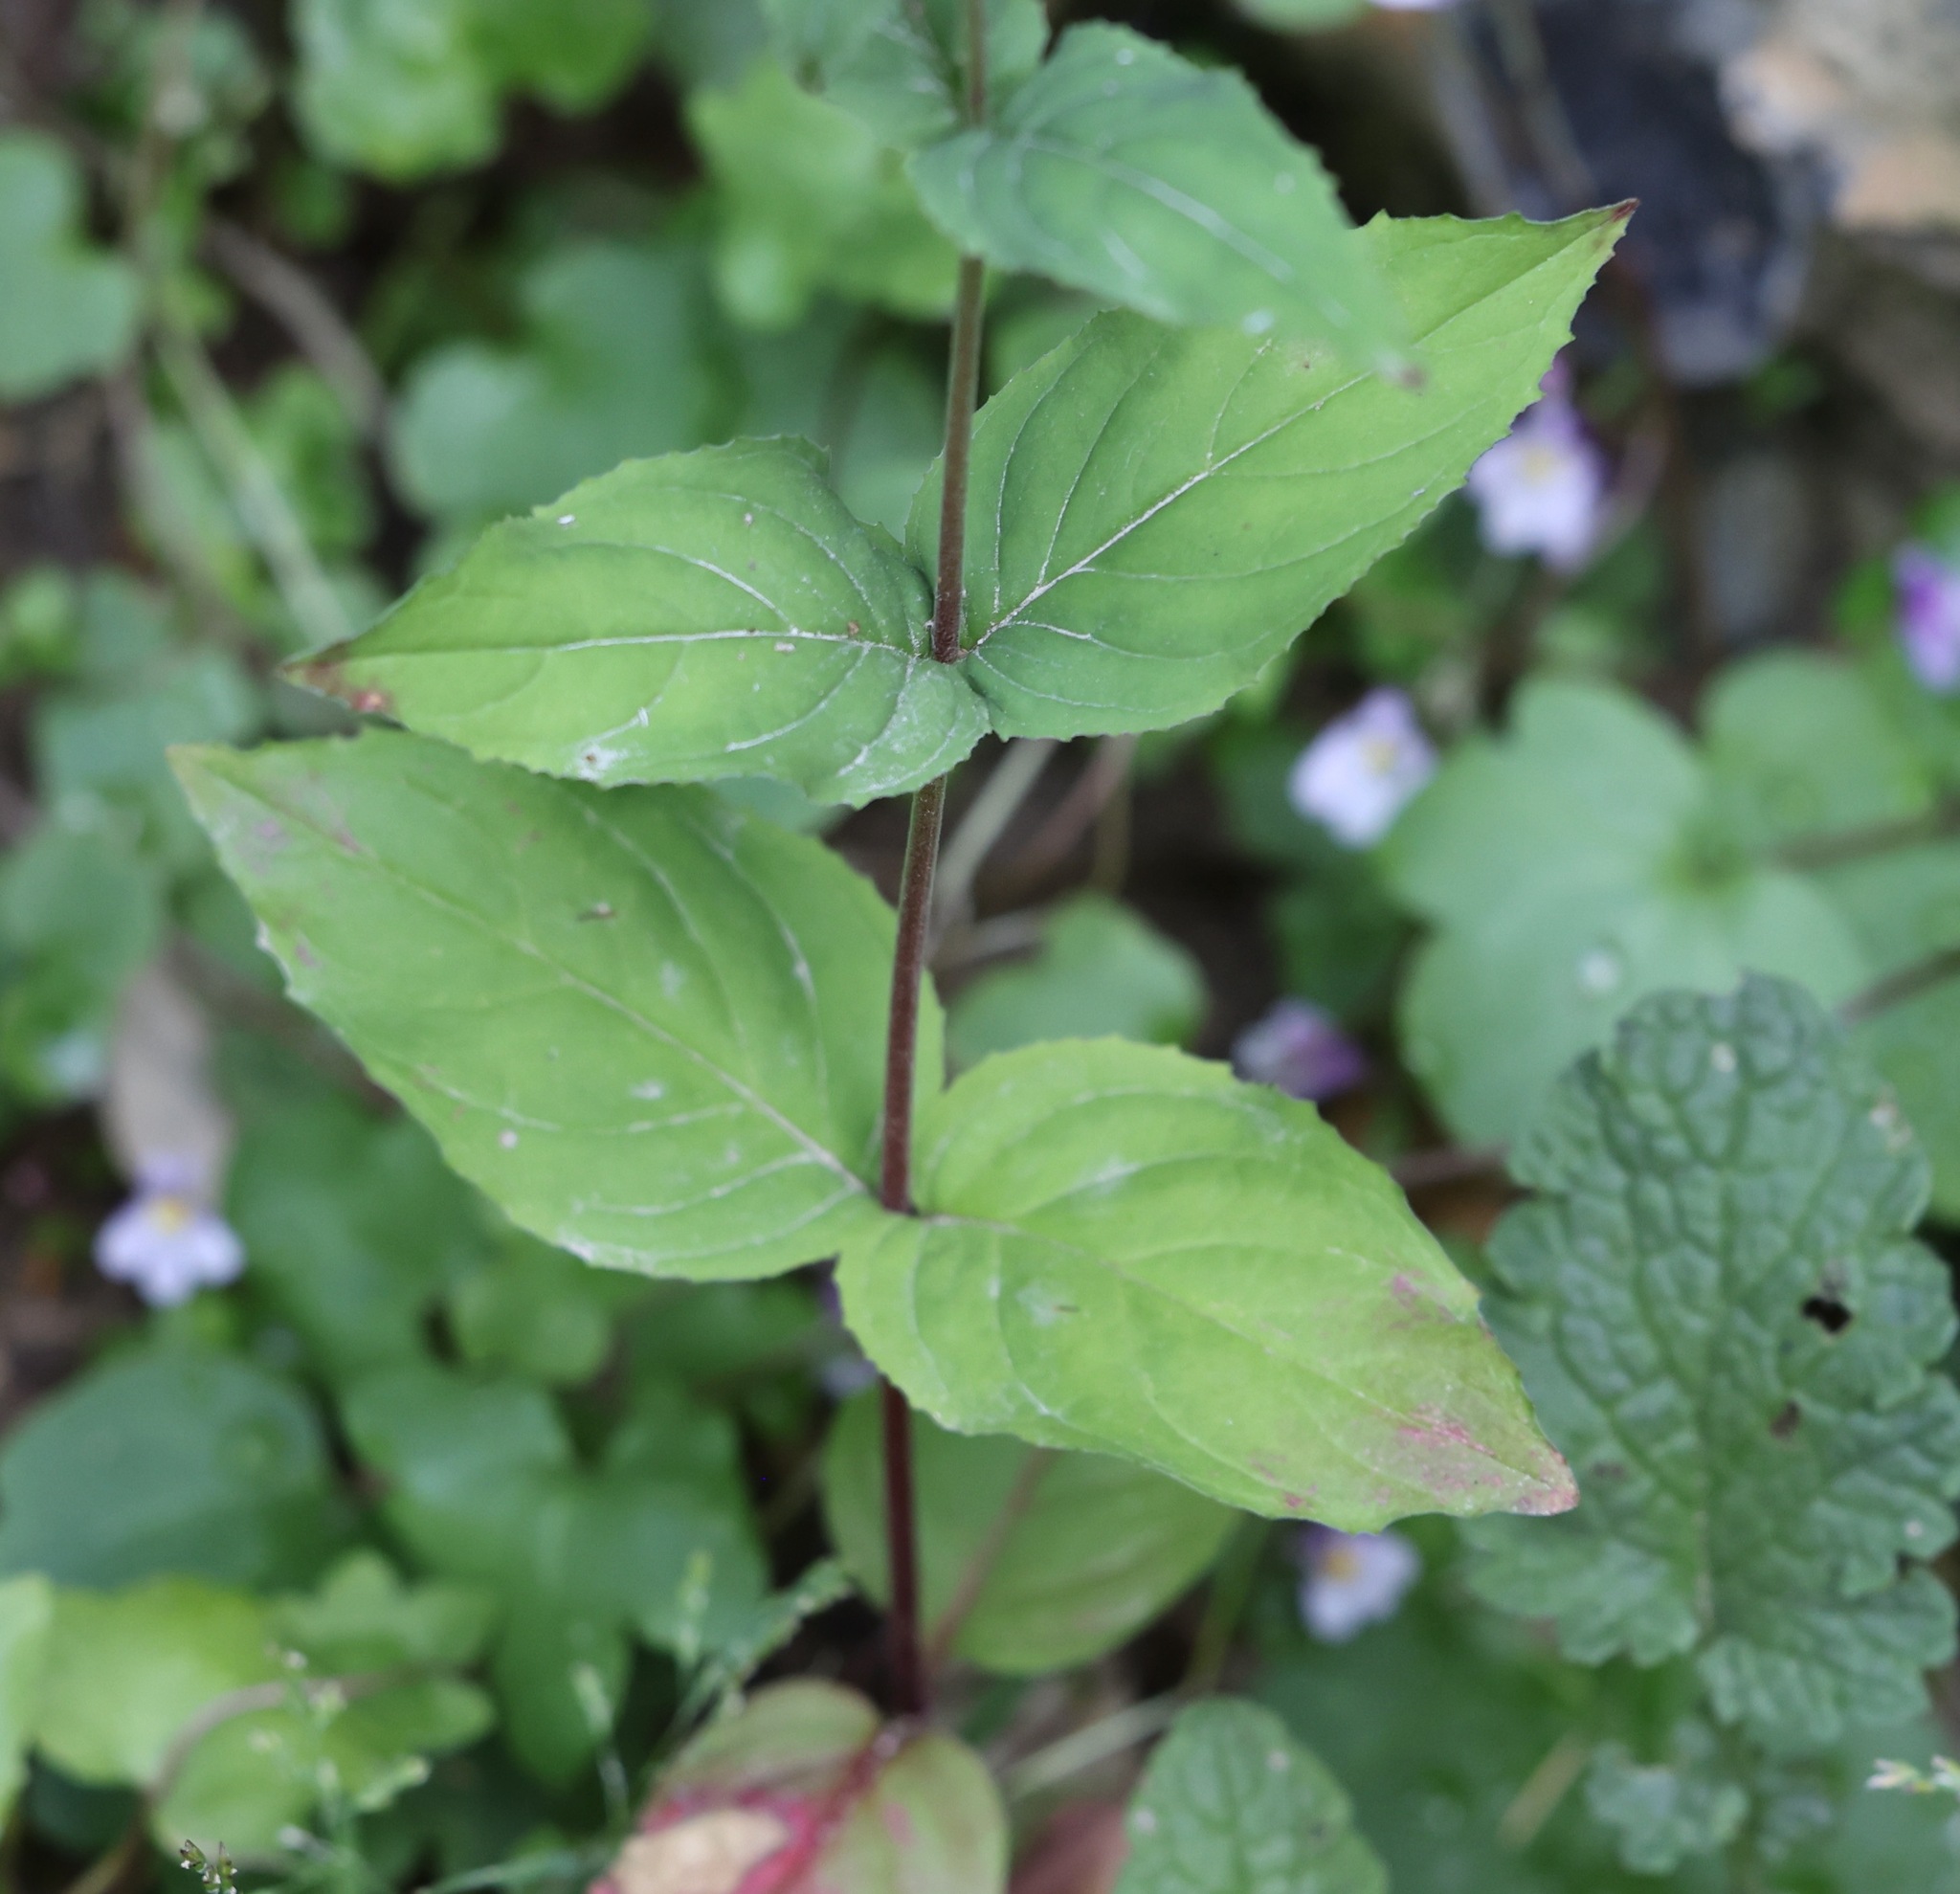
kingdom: Plantae
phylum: Tracheophyta
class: Magnoliopsida
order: Myrtales
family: Onagraceae
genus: Epilobium
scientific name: Epilobium montanum
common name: Broad-leaved willowherb
